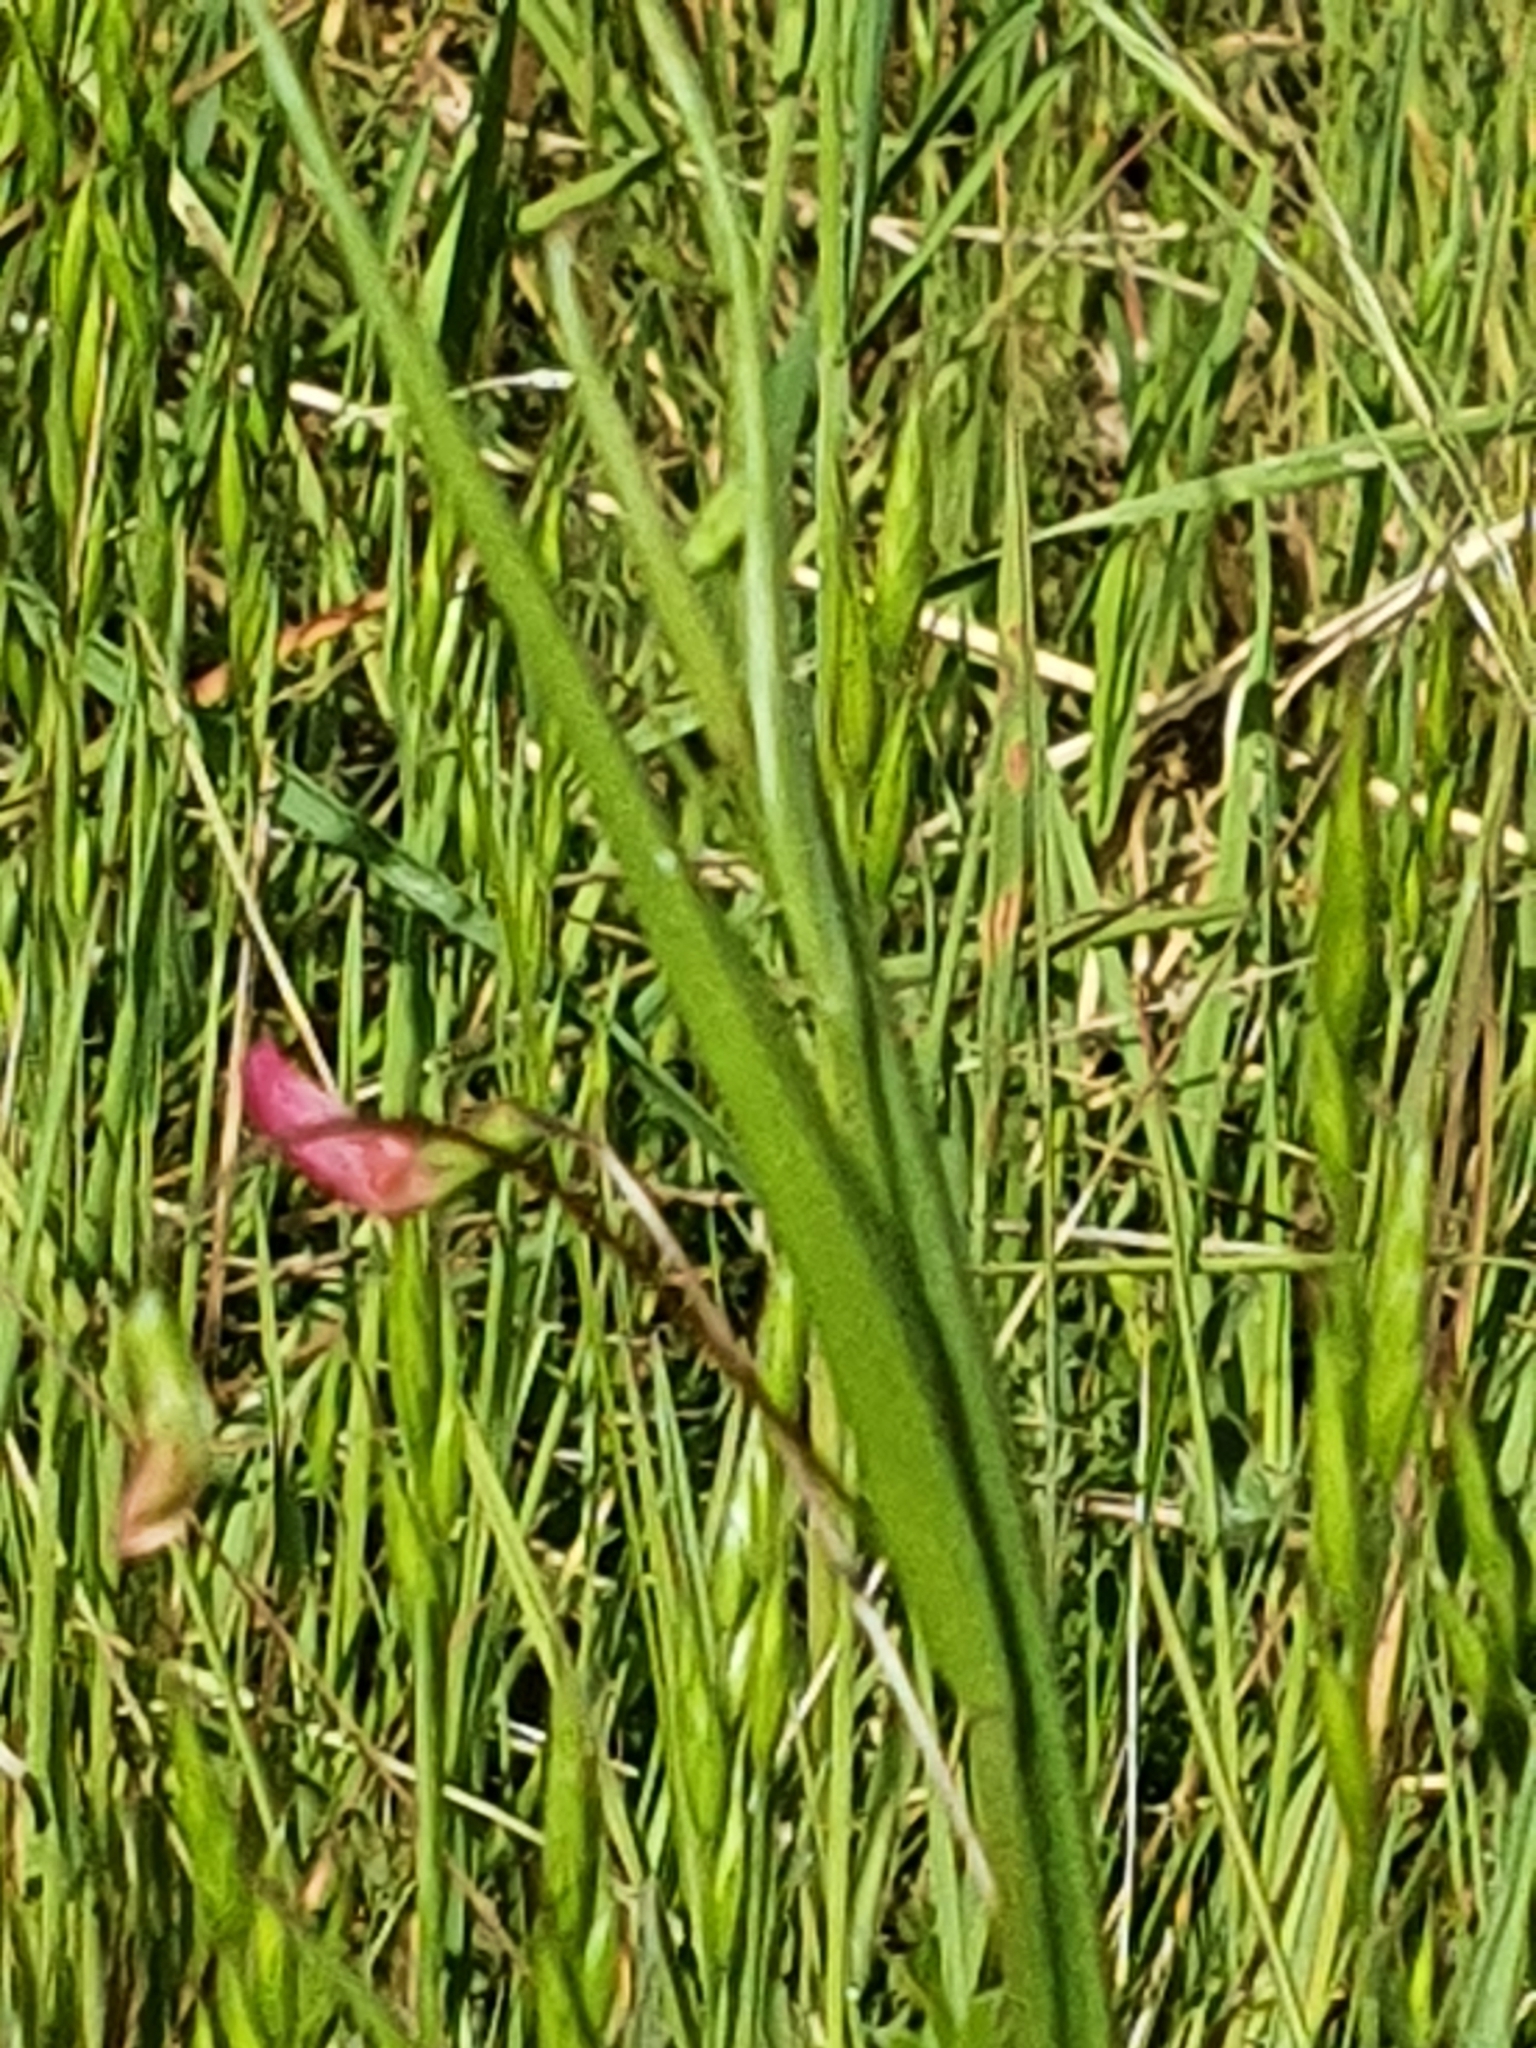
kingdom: Plantae
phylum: Tracheophyta
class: Magnoliopsida
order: Fabales
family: Fabaceae
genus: Lathyrus
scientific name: Lathyrus nissolia
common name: Grass vetchling
